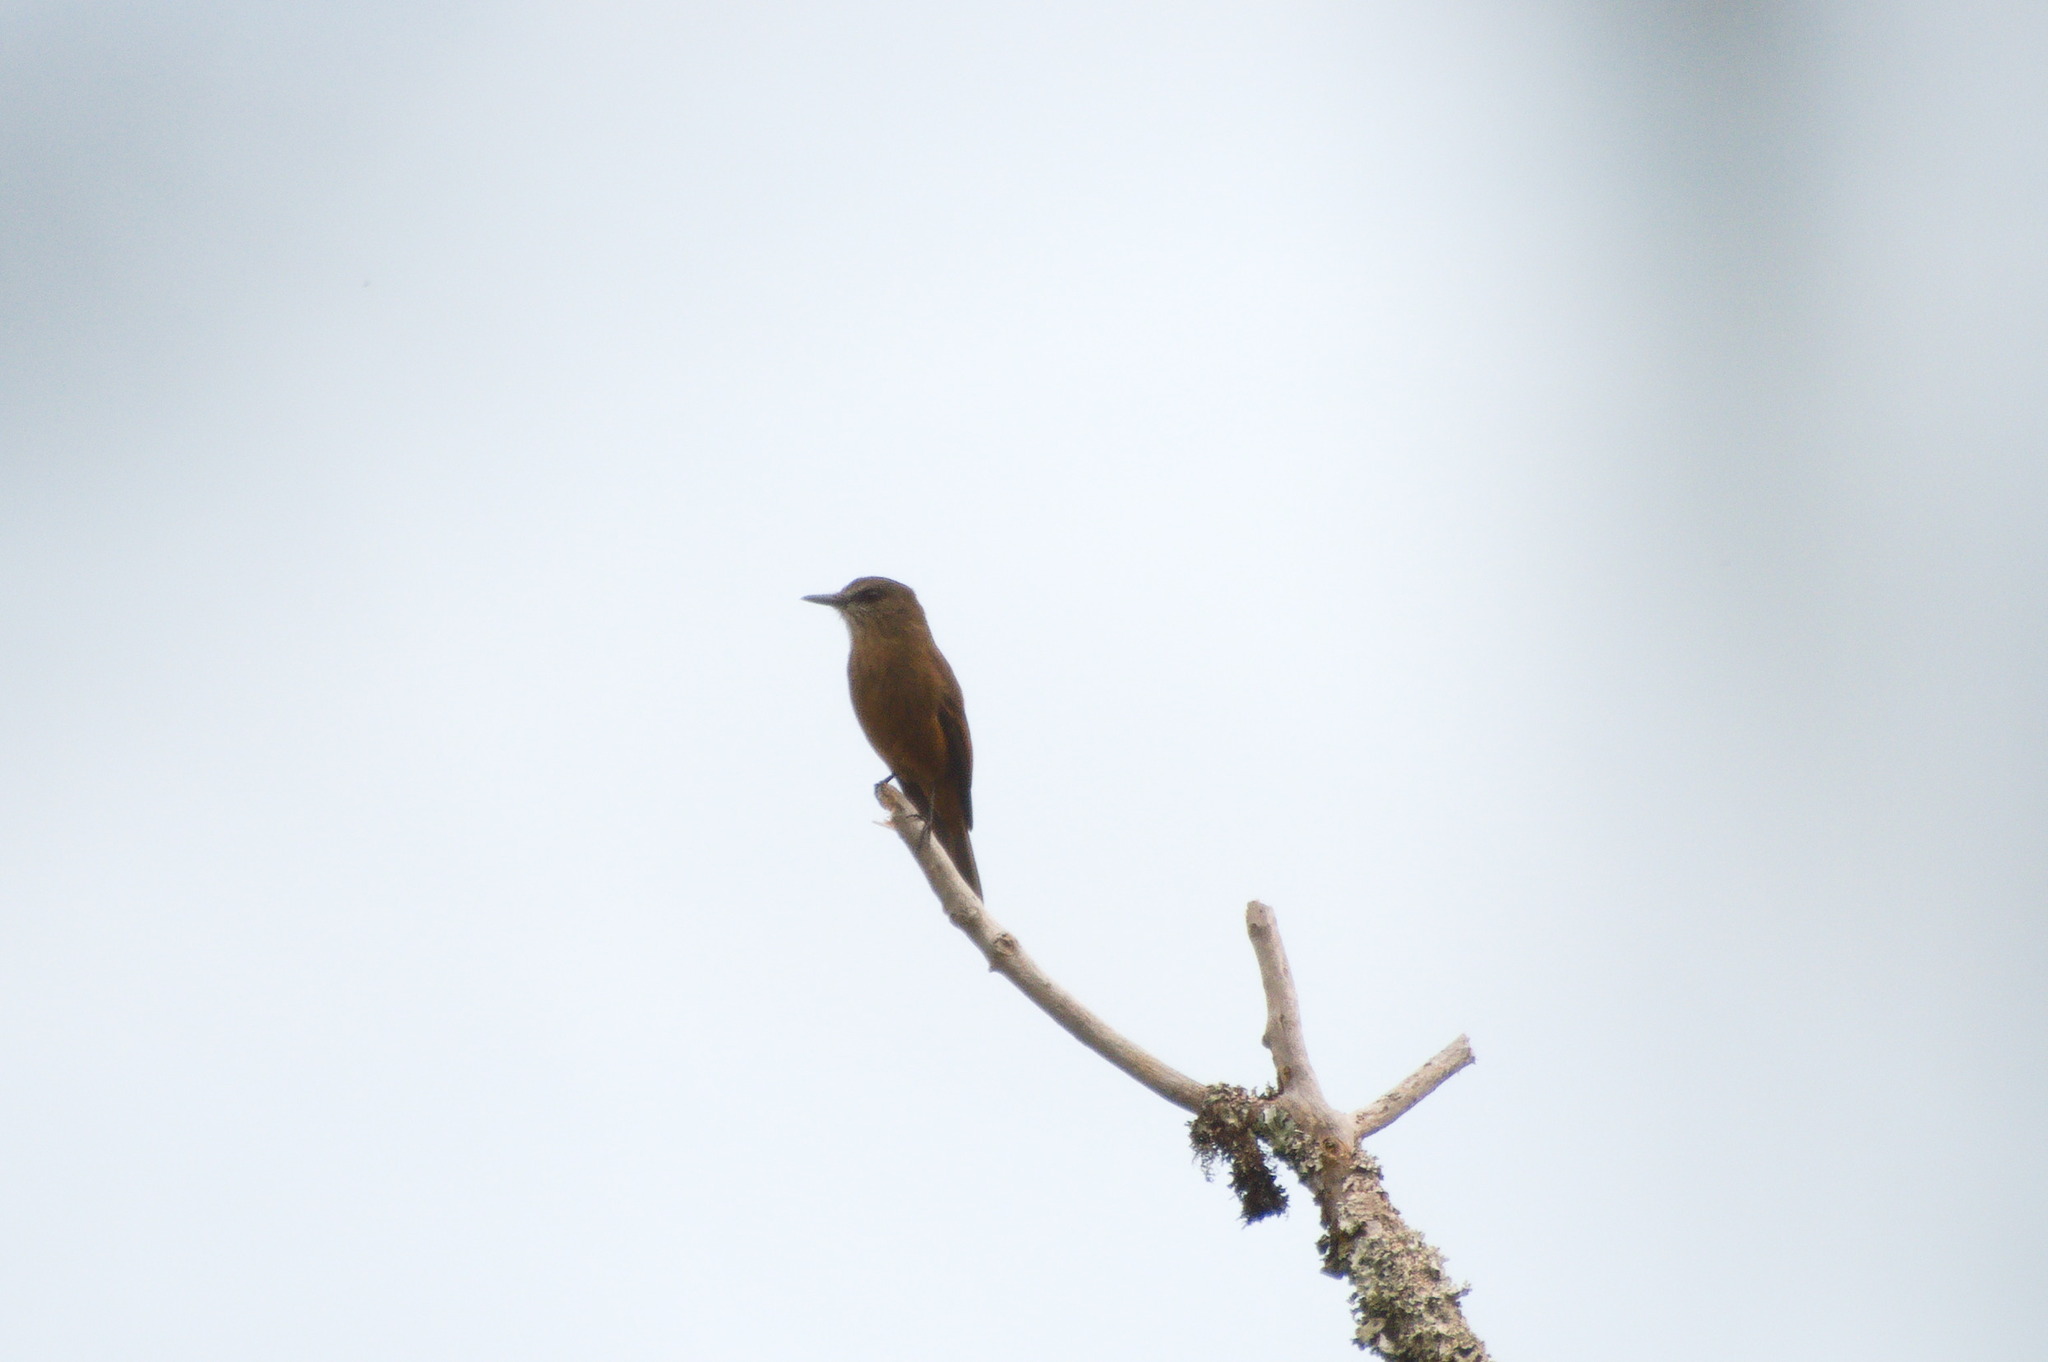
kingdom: Animalia
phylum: Chordata
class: Aves
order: Passeriformes
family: Tyrannidae
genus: Myiotheretes
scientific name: Myiotheretes pernix
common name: Santa marta bush tyrant
